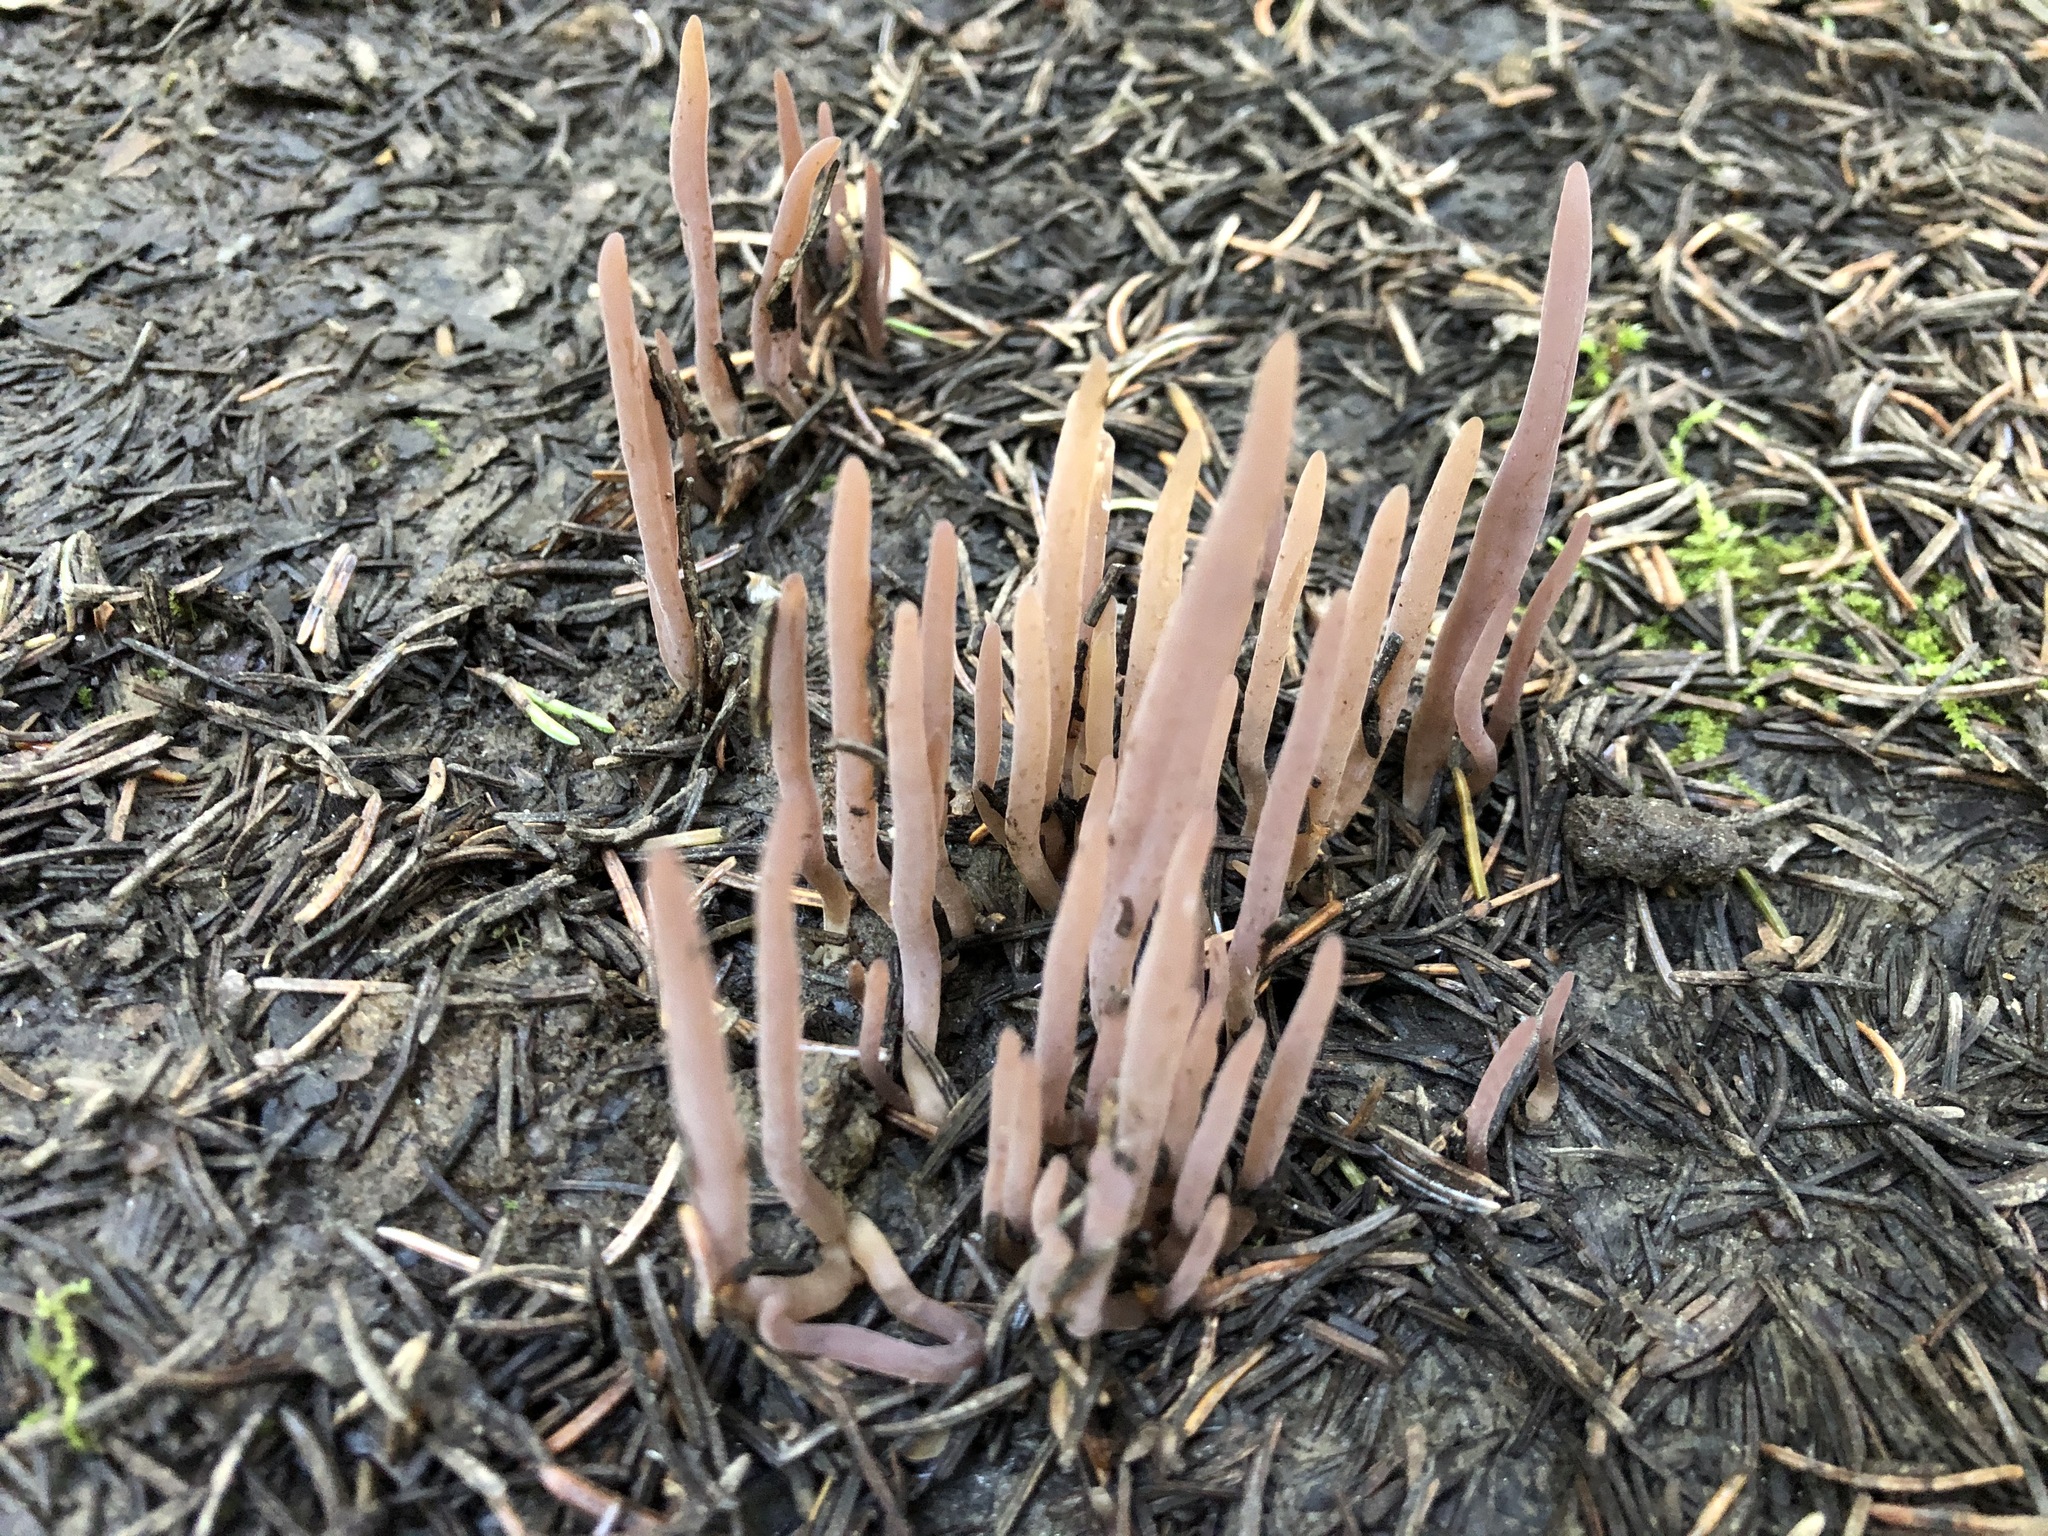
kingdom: Fungi
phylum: Basidiomycota
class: Agaricomycetes
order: Hymenochaetales
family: Rickenellaceae
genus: Alloclavaria
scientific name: Alloclavaria purpurea
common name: Purple spindles
